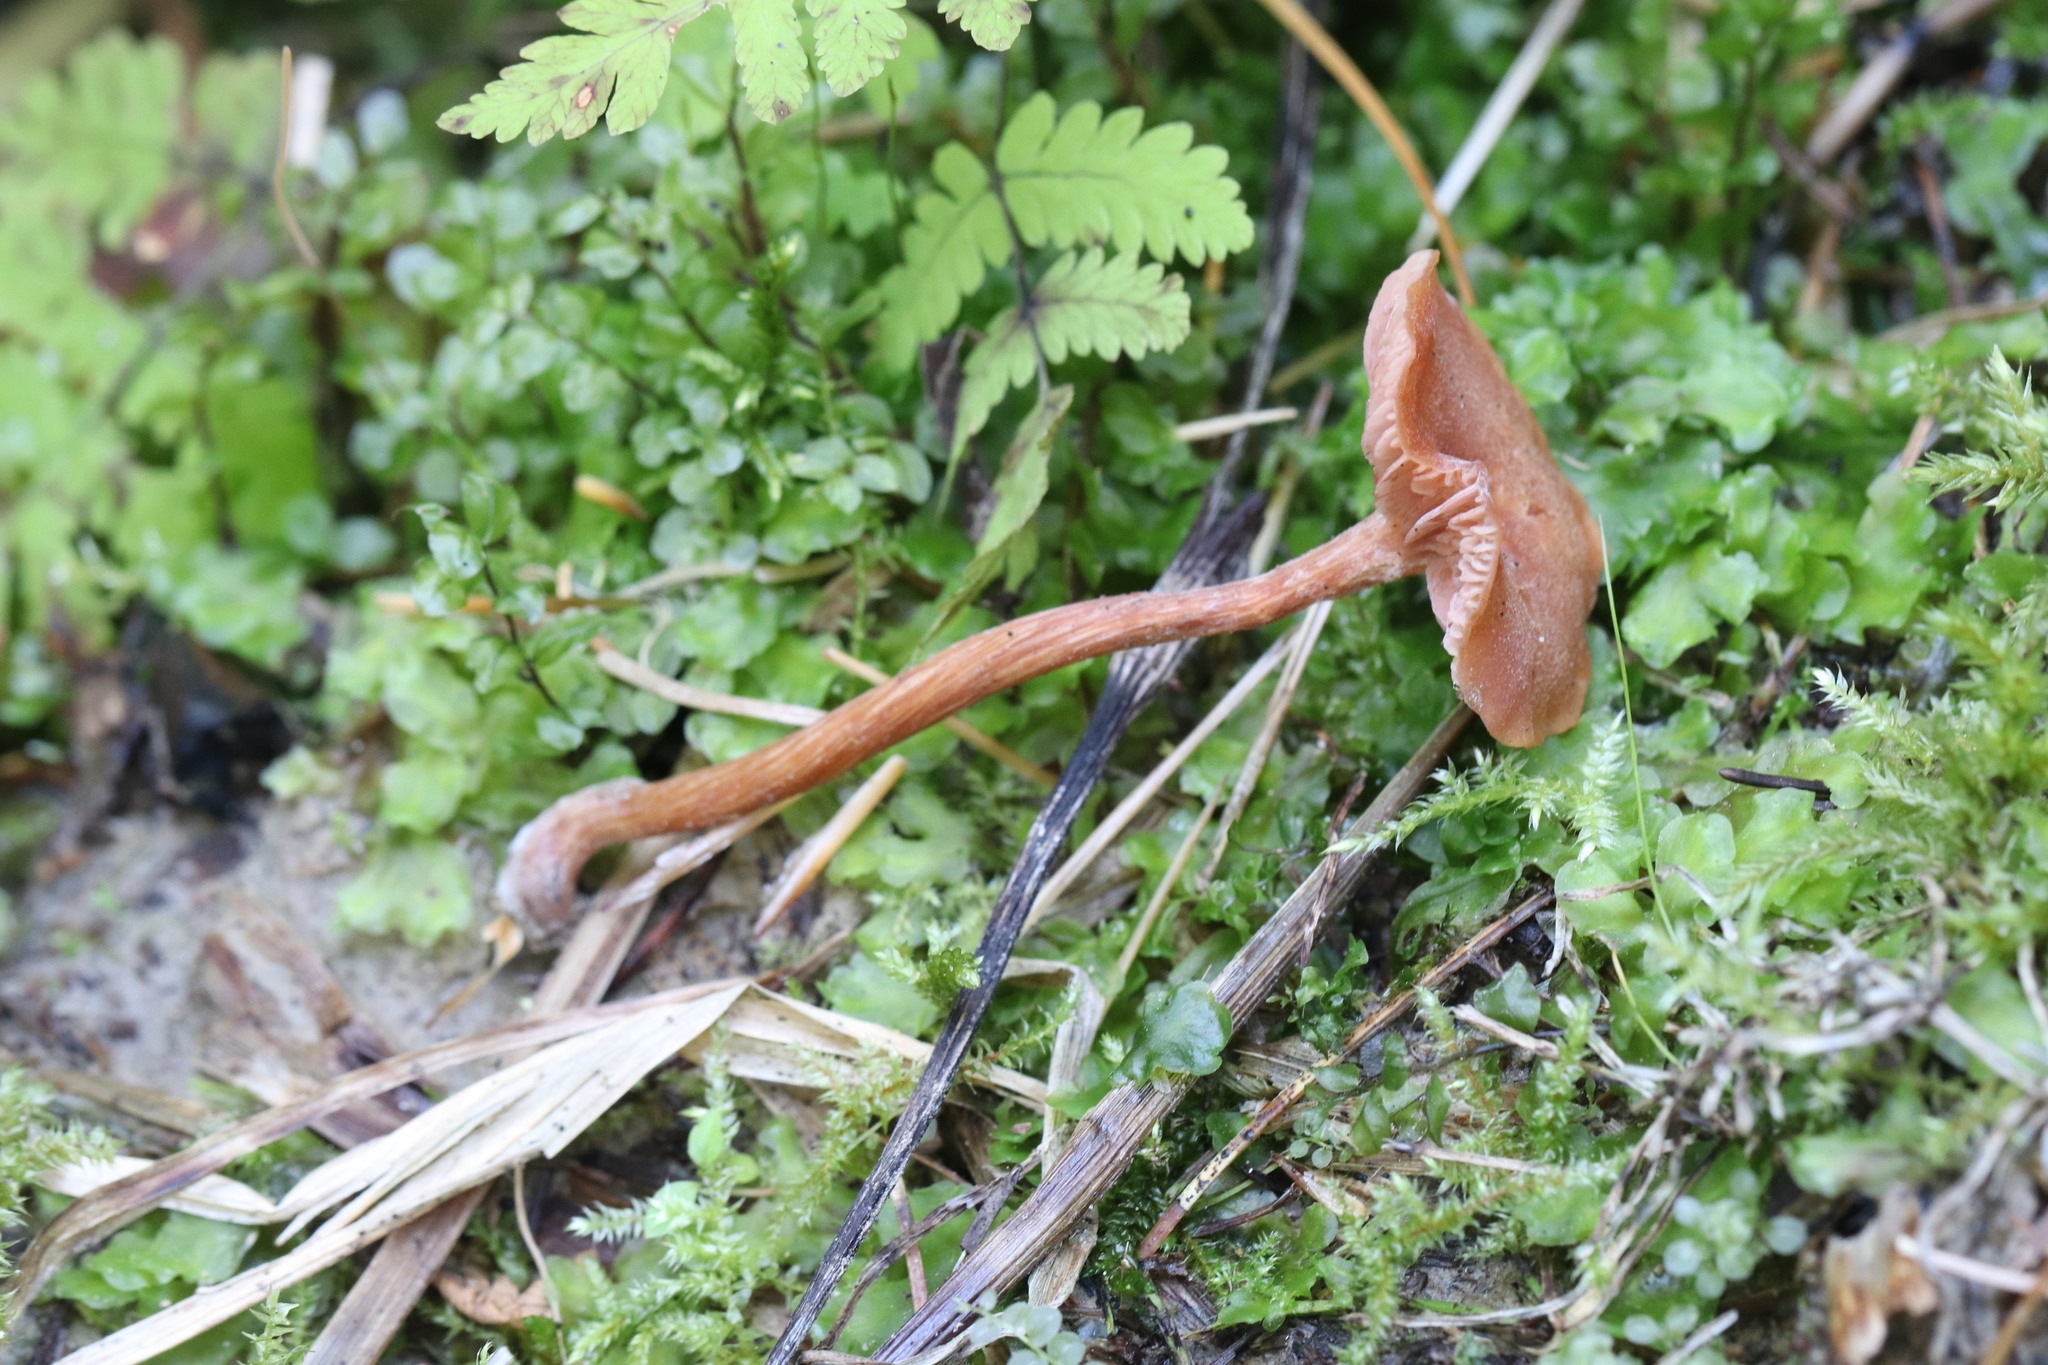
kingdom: Fungi
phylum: Basidiomycota
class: Agaricomycetes
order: Agaricales
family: Hydnangiaceae
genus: Laccaria
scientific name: Laccaria laccata
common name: Deceiver
